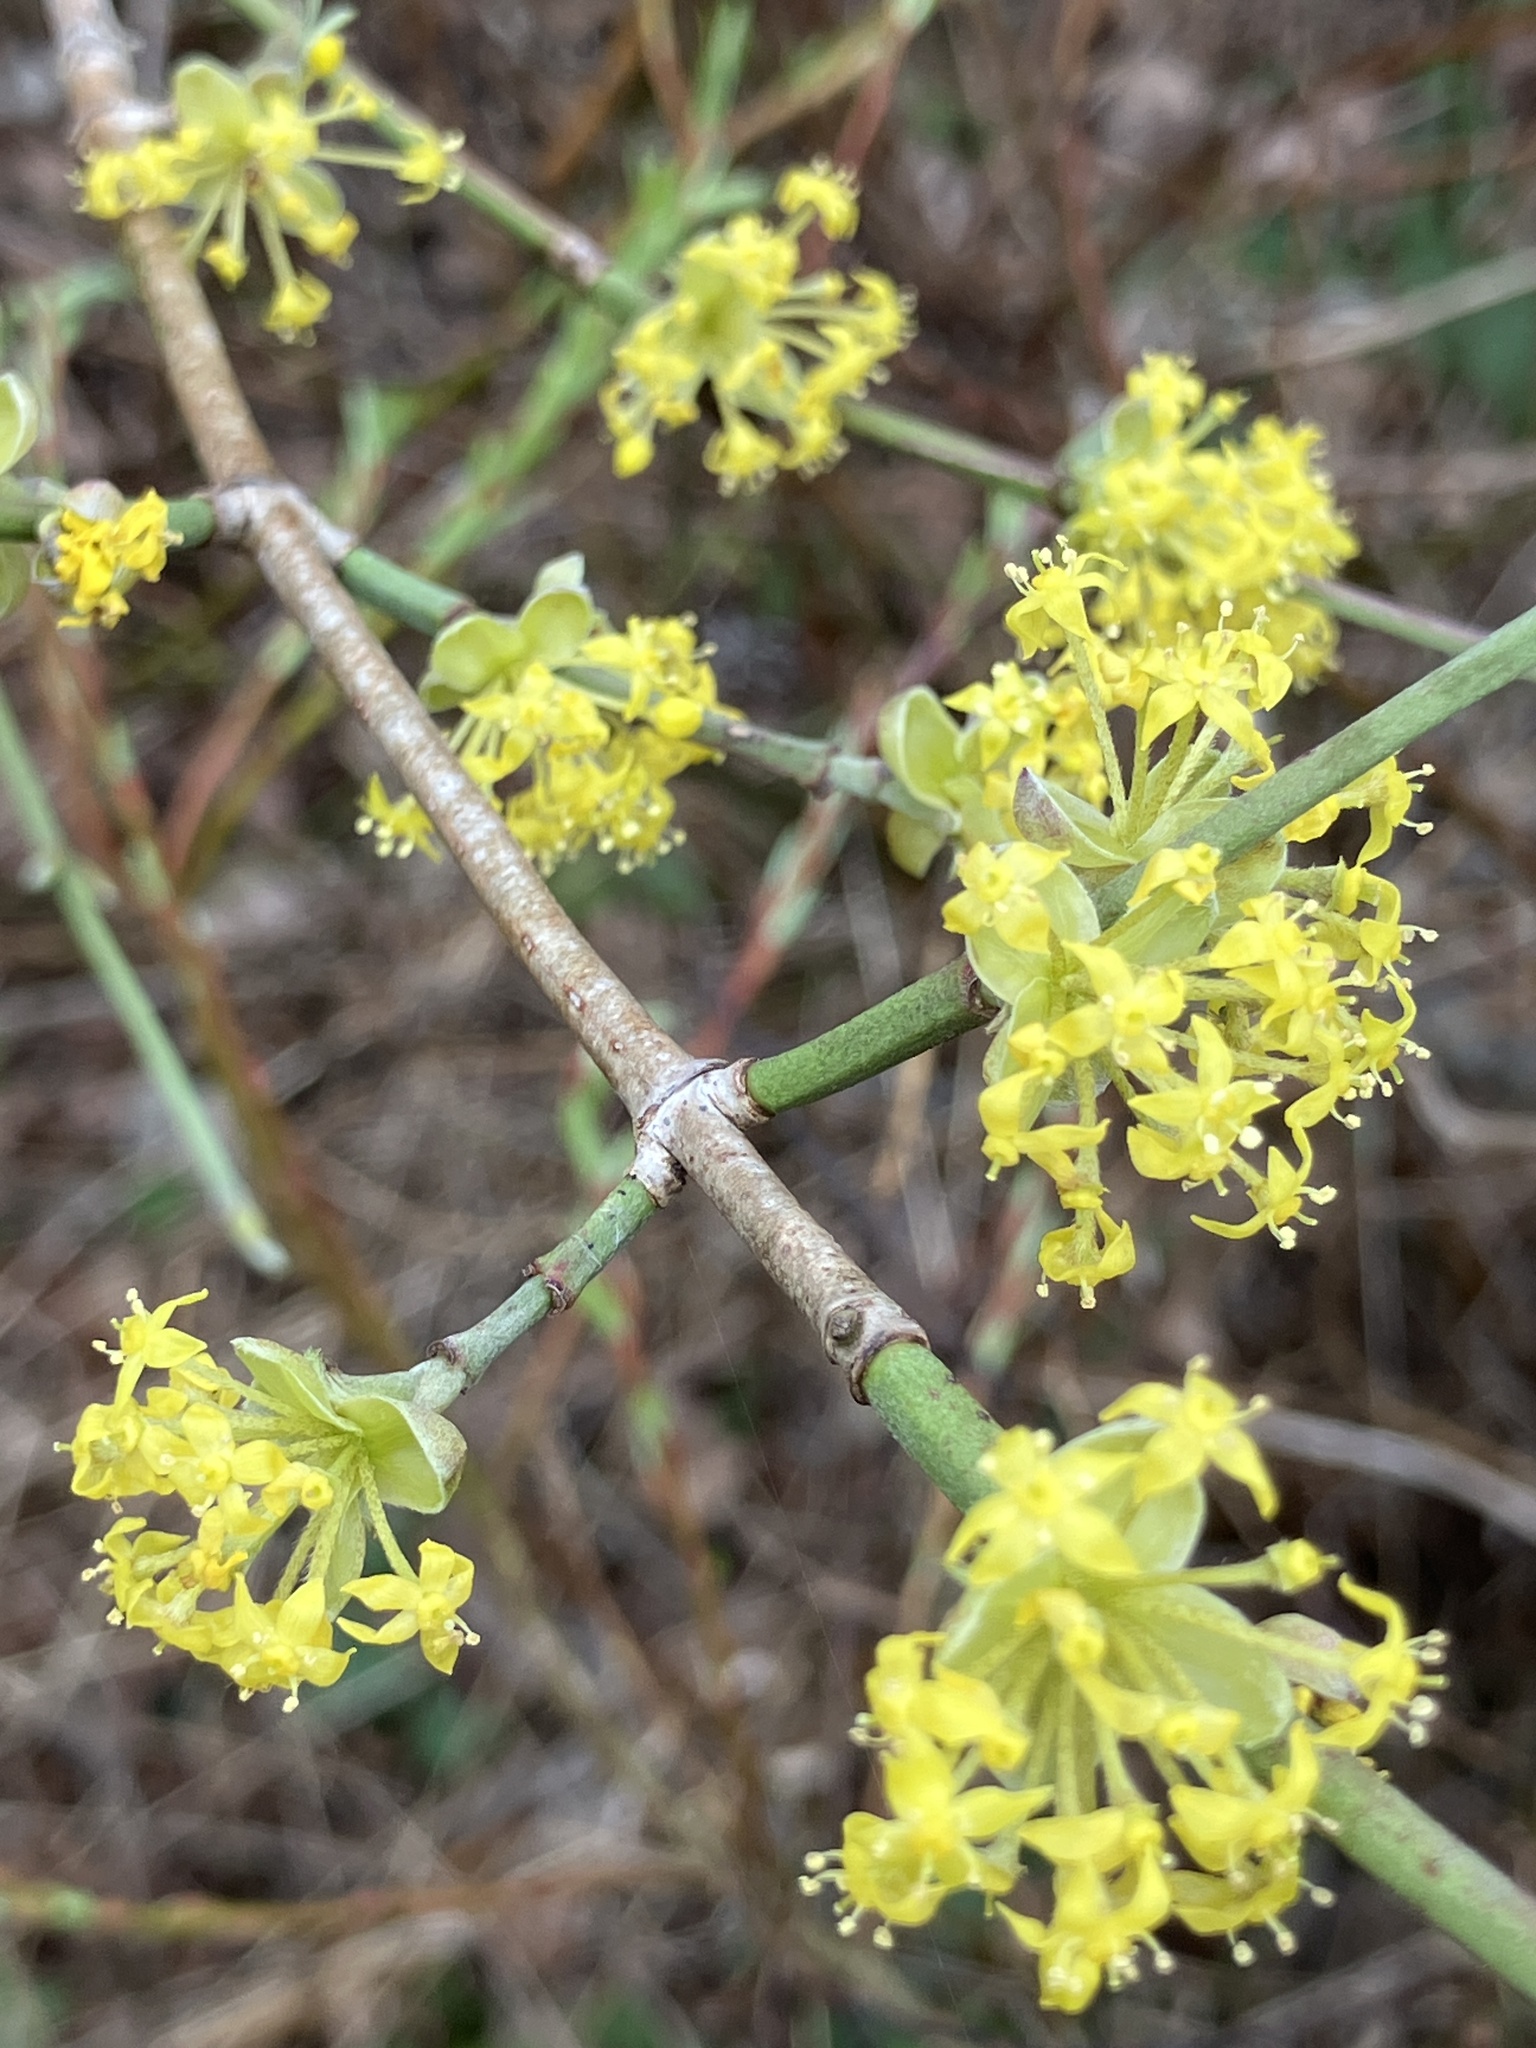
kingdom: Plantae
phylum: Tracheophyta
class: Magnoliopsida
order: Cornales
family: Cornaceae
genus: Cornus
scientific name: Cornus mas
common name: Cornelian-cherry
